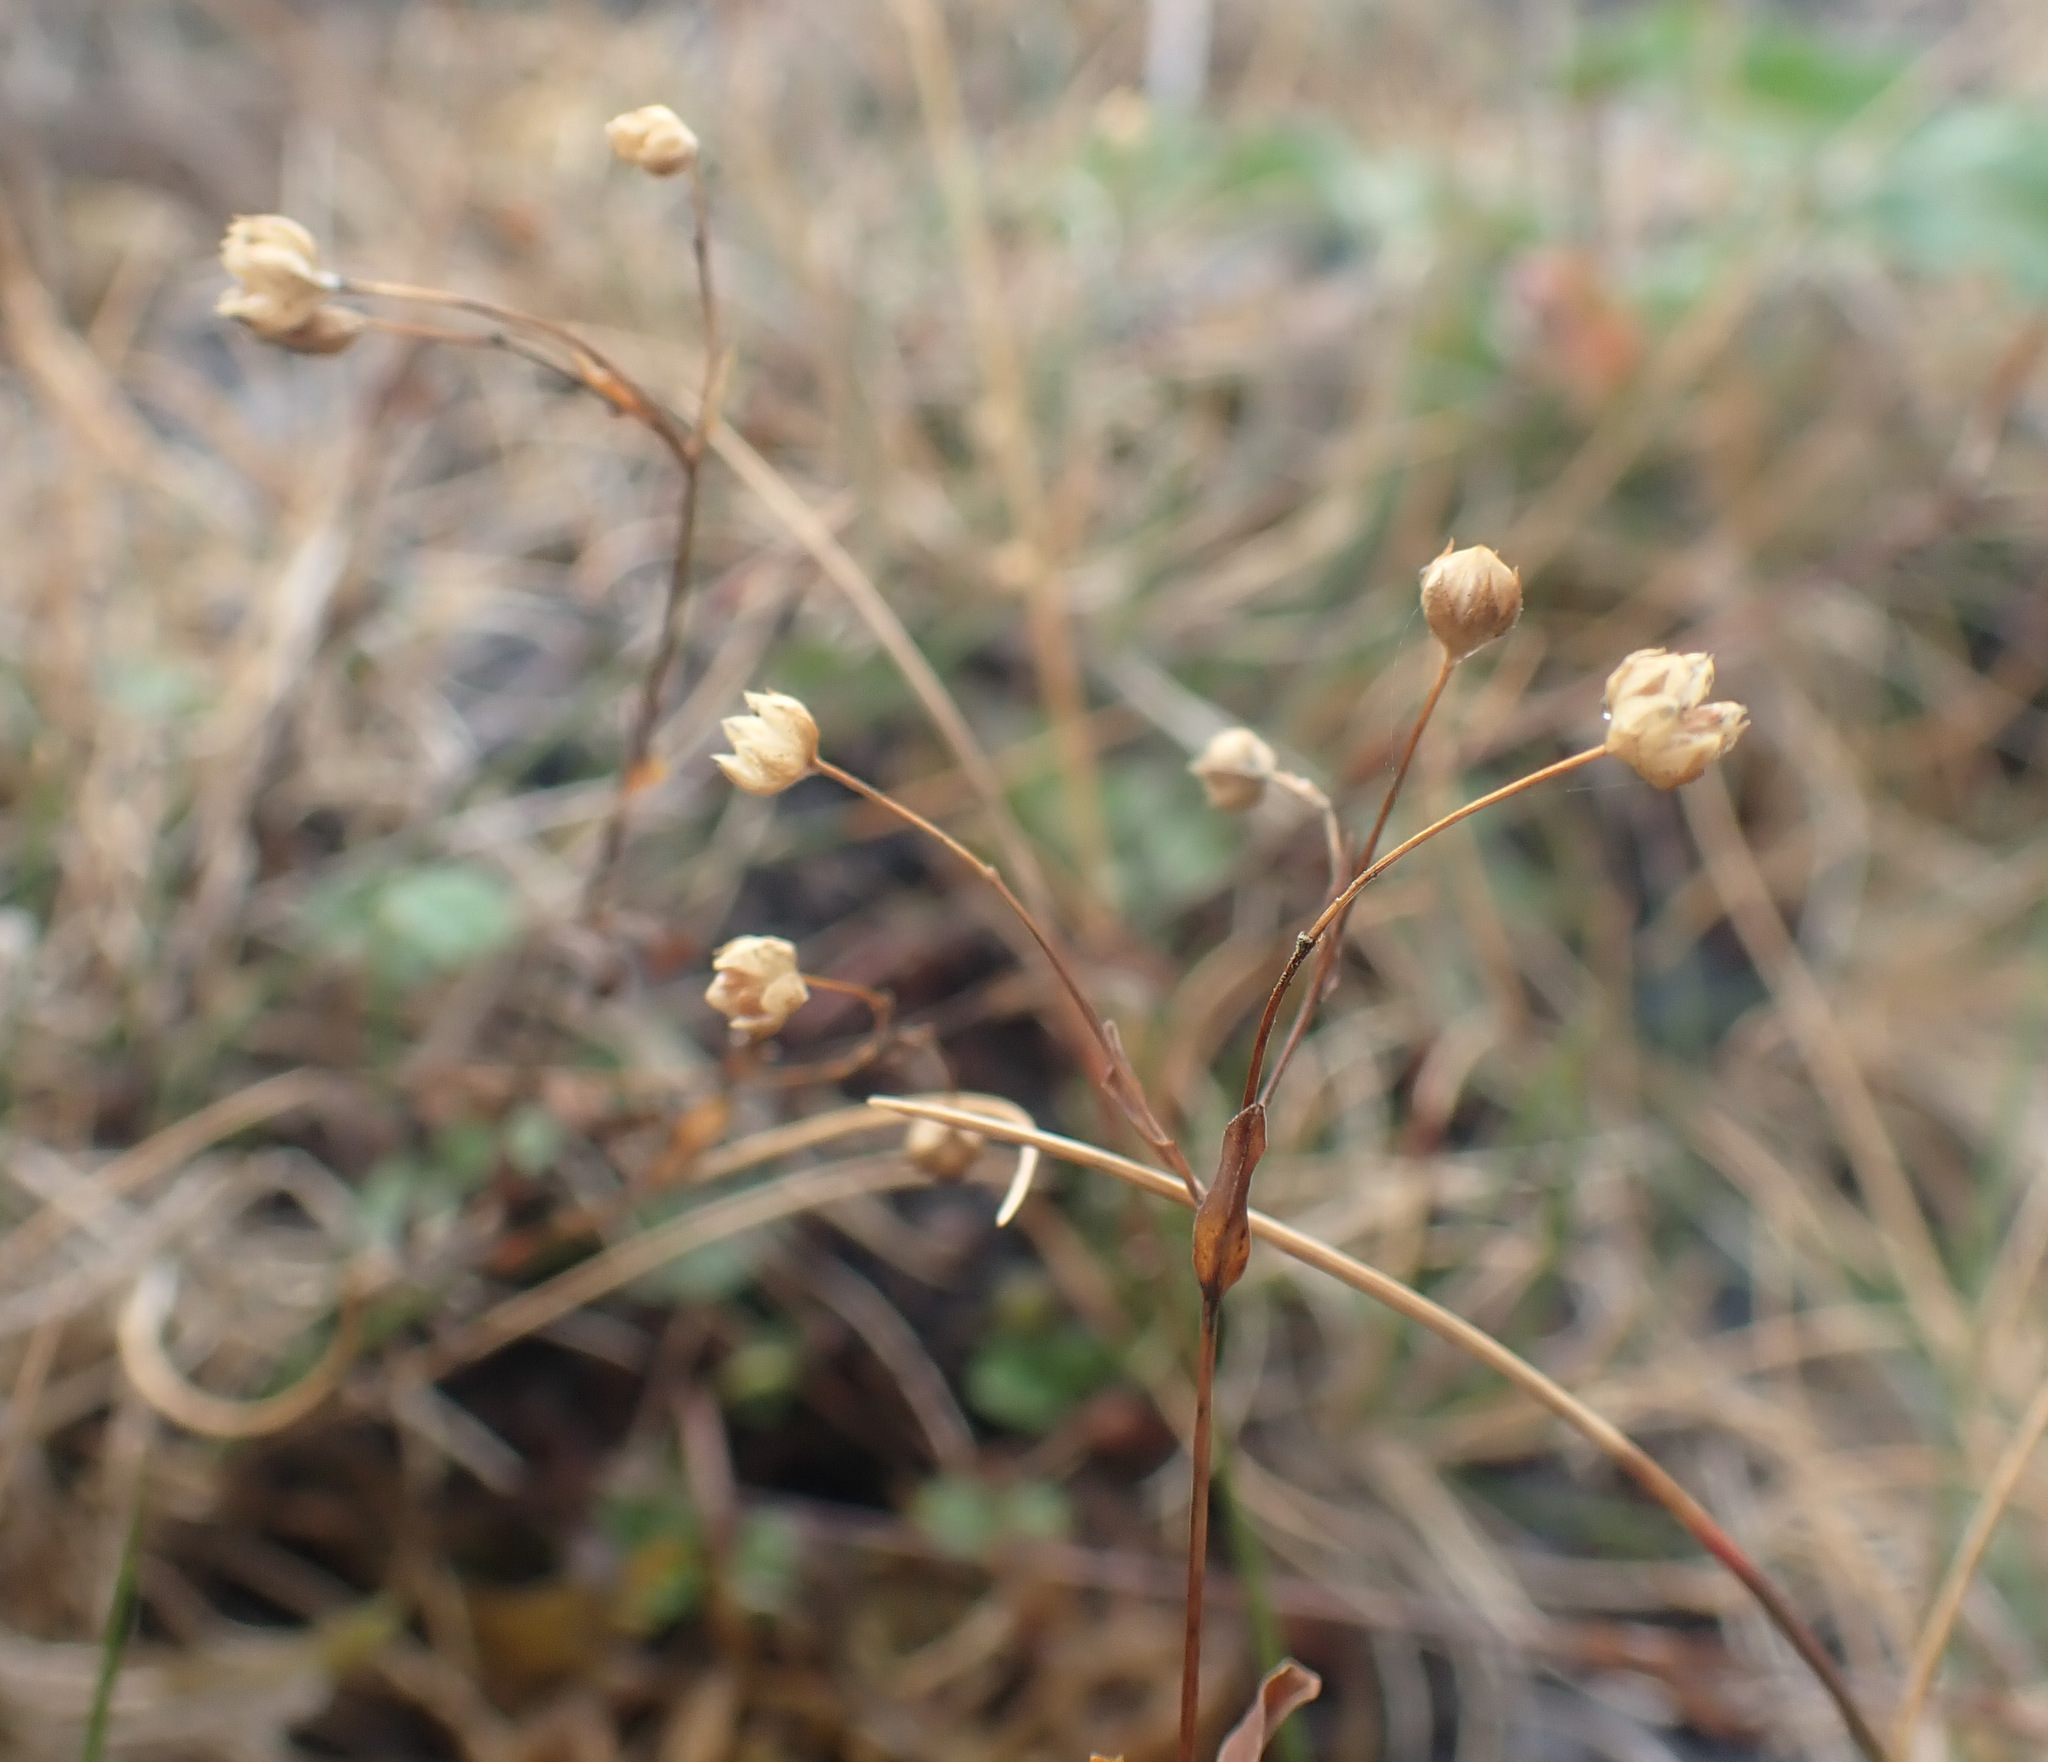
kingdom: Plantae
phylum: Tracheophyta
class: Magnoliopsida
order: Malpighiales
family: Linaceae
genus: Linum
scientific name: Linum catharticum
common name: Fairy flax
